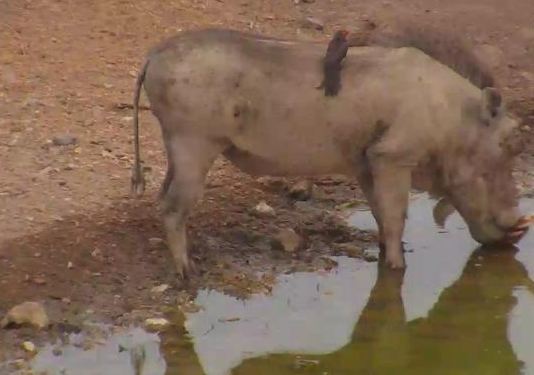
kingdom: Animalia
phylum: Chordata
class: Aves
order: Passeriformes
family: Buphagidae
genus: Buphagus
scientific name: Buphagus erythrorhynchus
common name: Red-billed oxpecker
